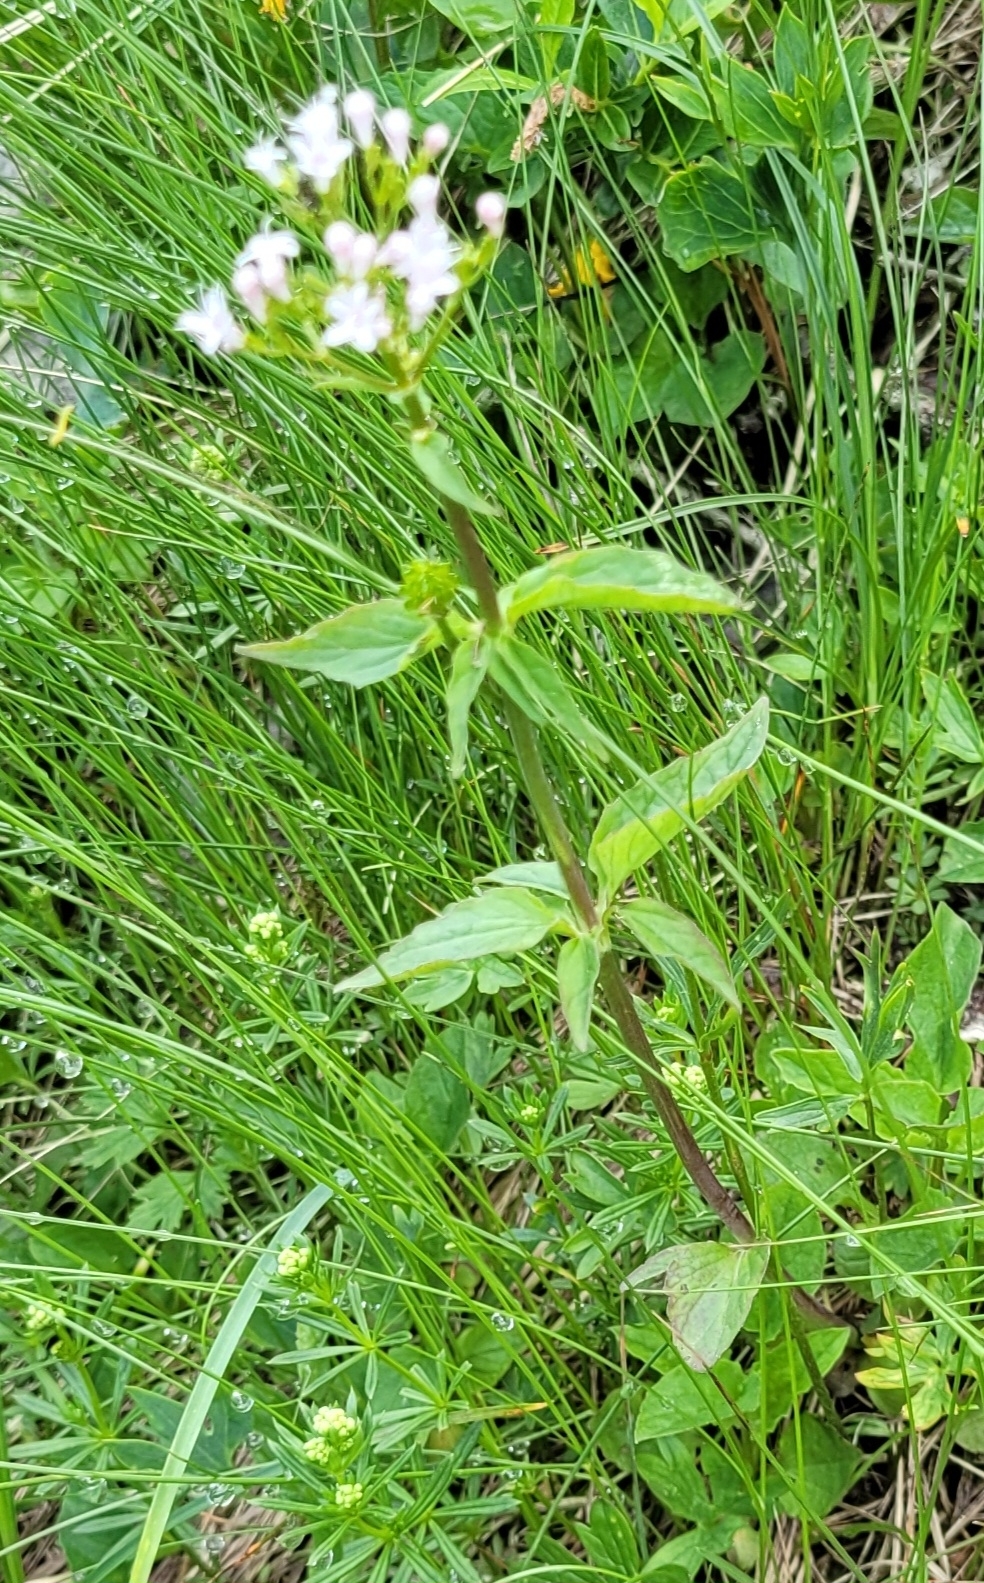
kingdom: Plantae
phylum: Tracheophyta
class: Magnoliopsida
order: Dipsacales
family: Caprifoliaceae
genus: Valeriana
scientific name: Valeriana tripteris
